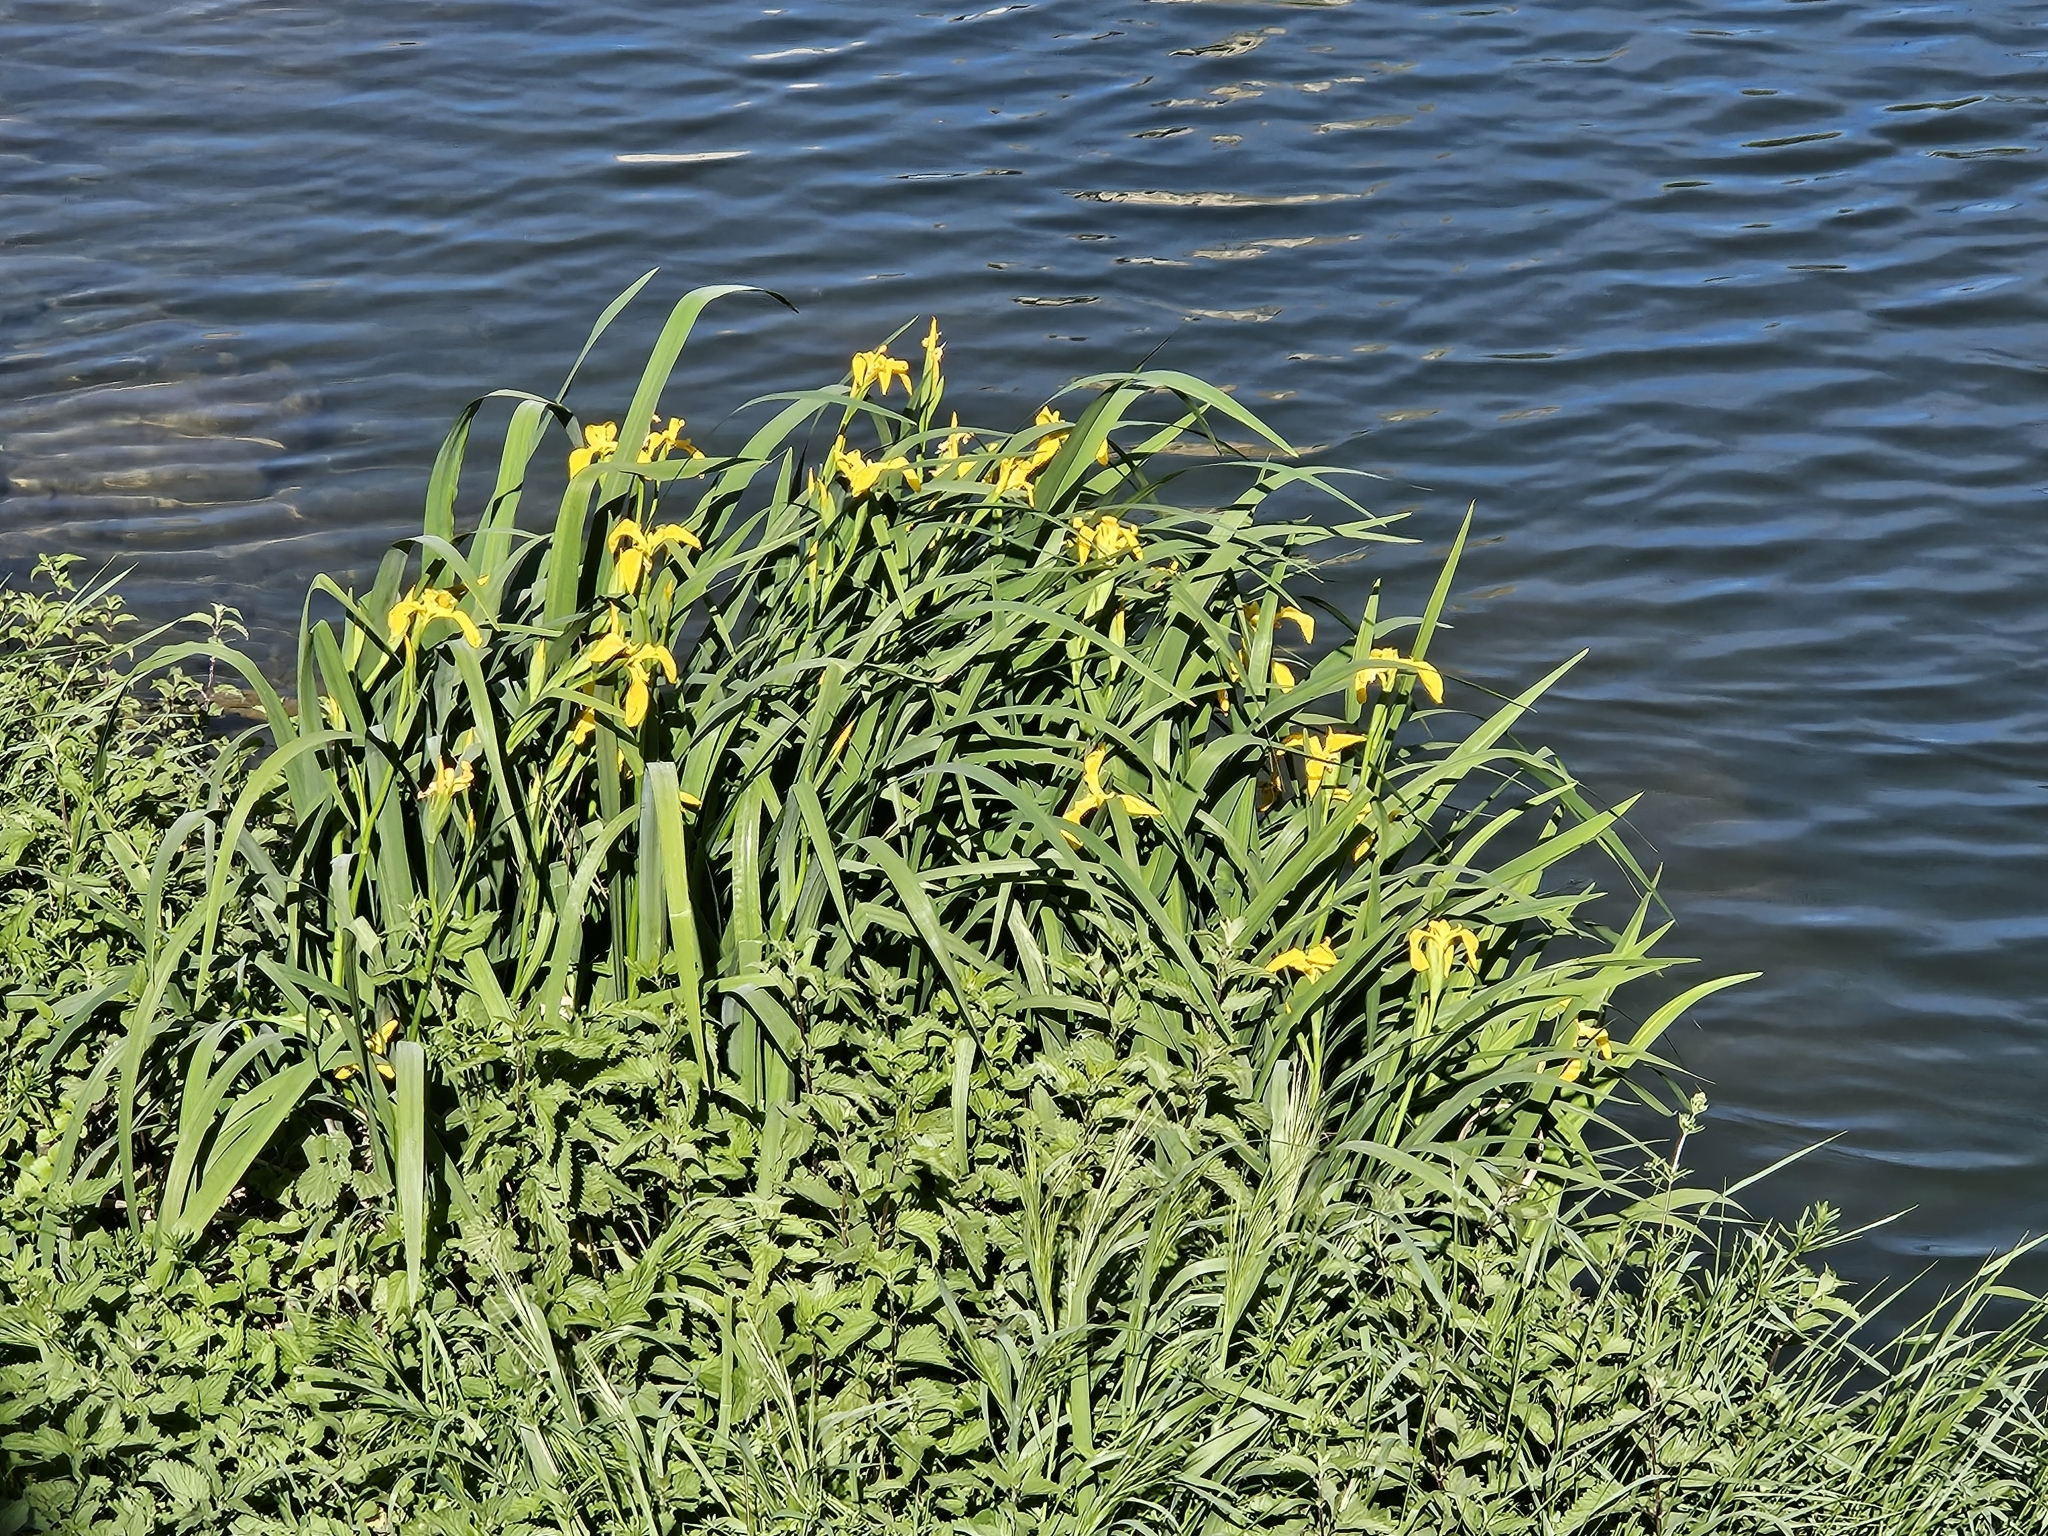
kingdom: Plantae
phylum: Tracheophyta
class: Liliopsida
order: Asparagales
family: Iridaceae
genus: Iris
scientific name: Iris pseudacorus
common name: Yellow flag
